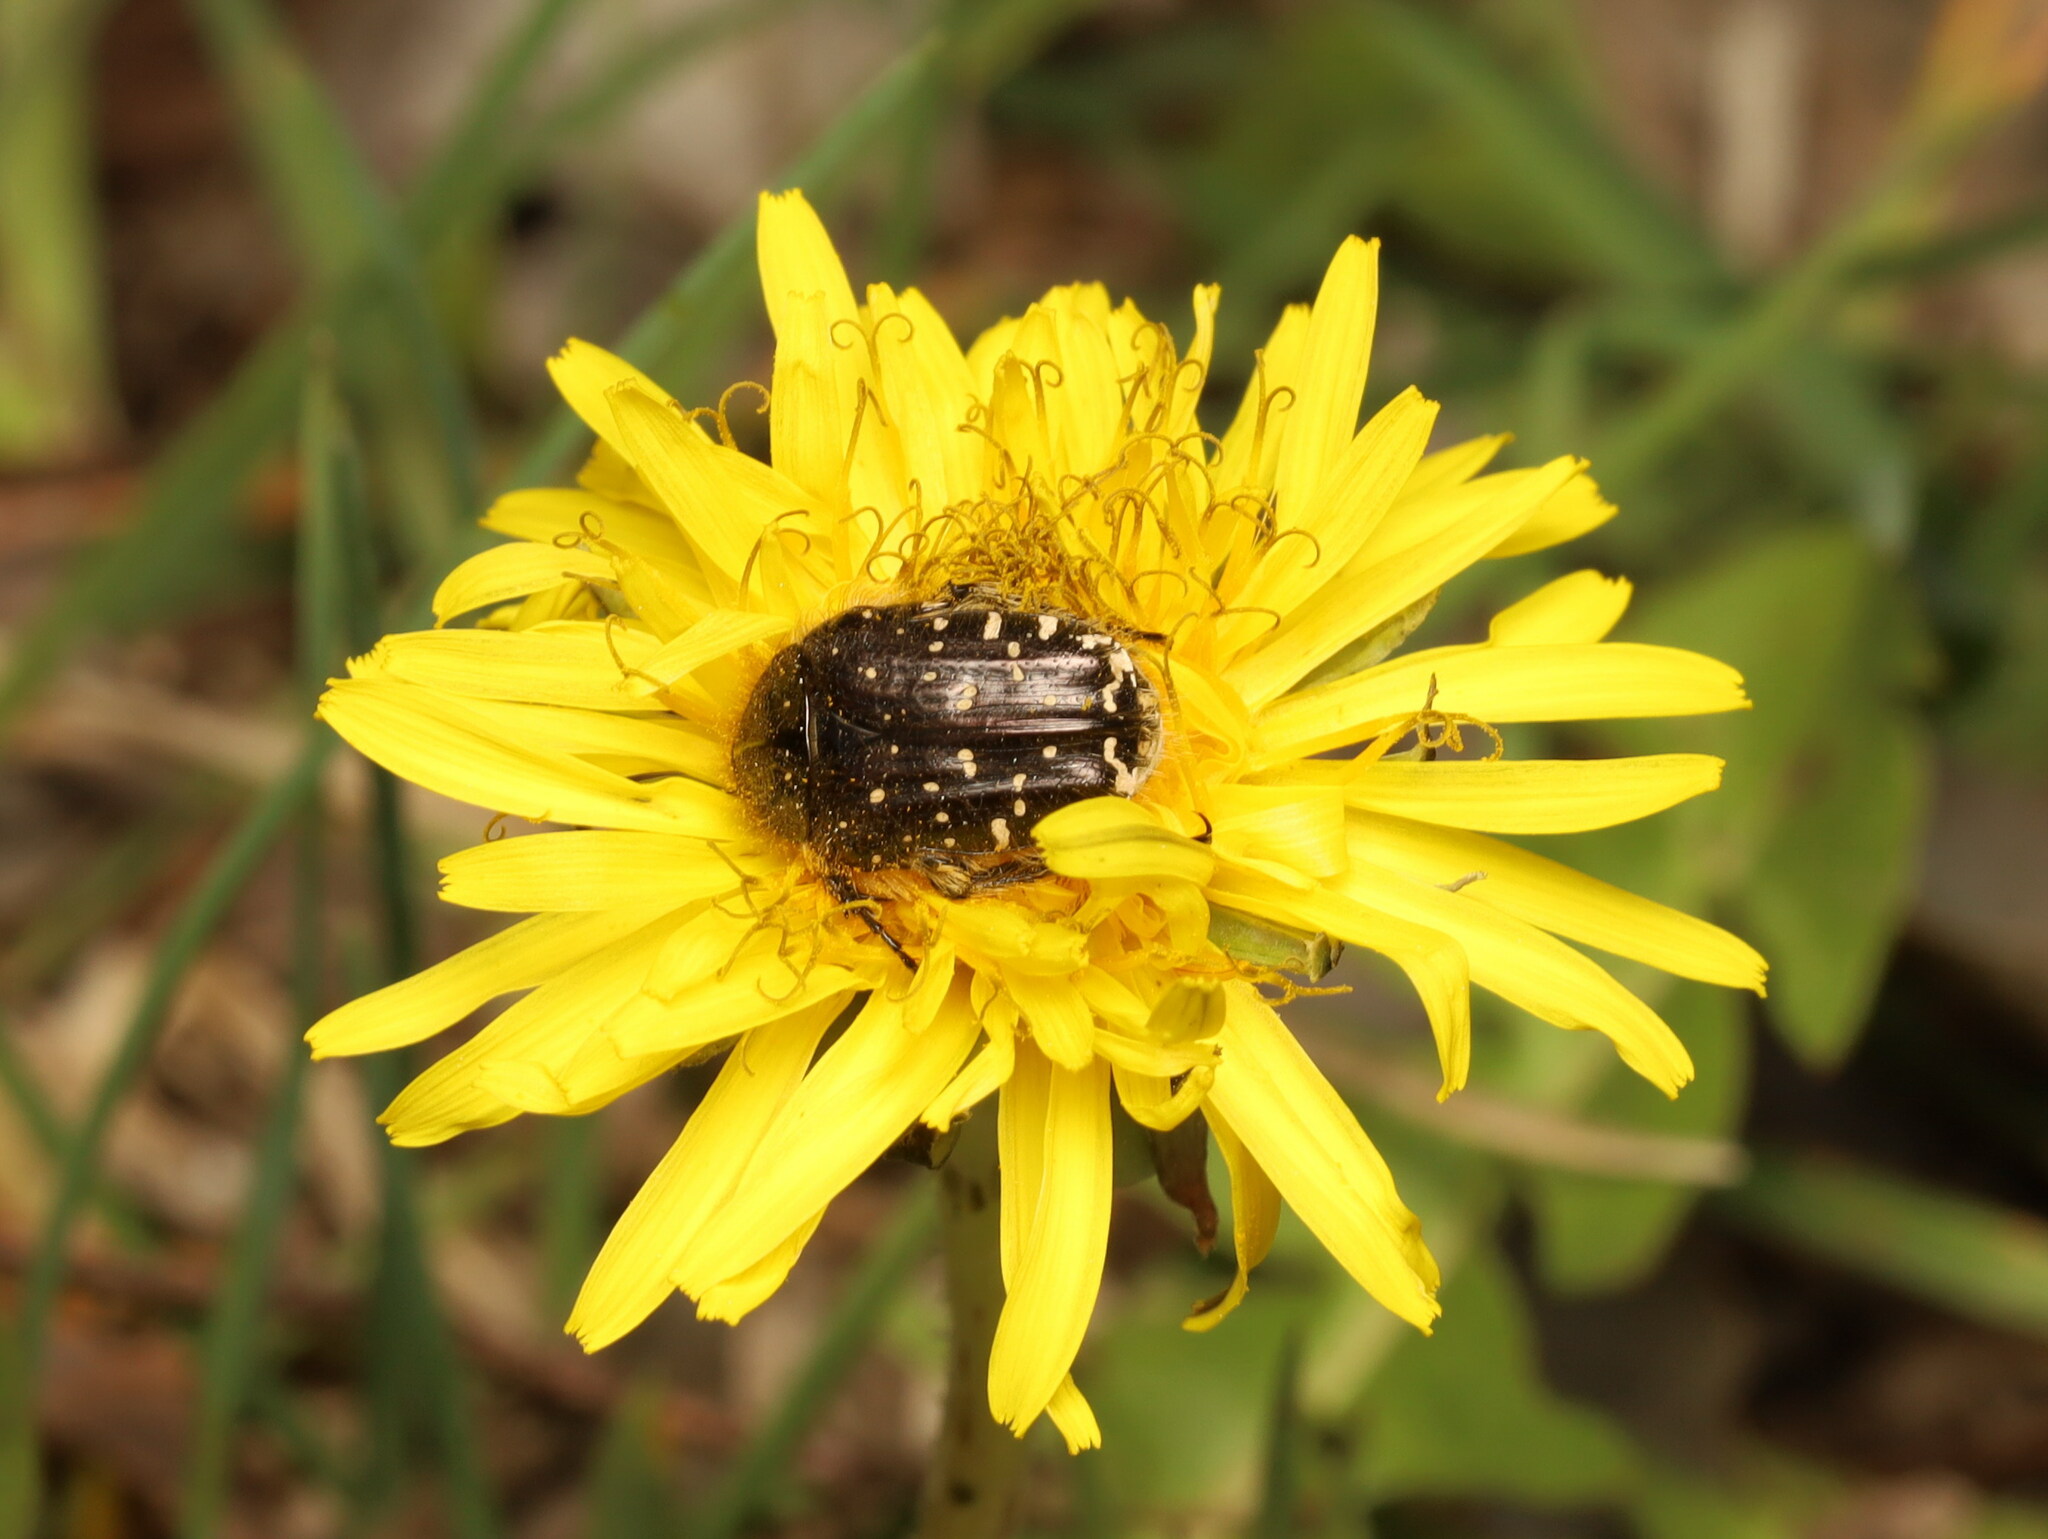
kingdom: Animalia
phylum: Arthropoda
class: Insecta
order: Coleoptera
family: Scarabaeidae
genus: Oxythyrea
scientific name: Oxythyrea funesta
